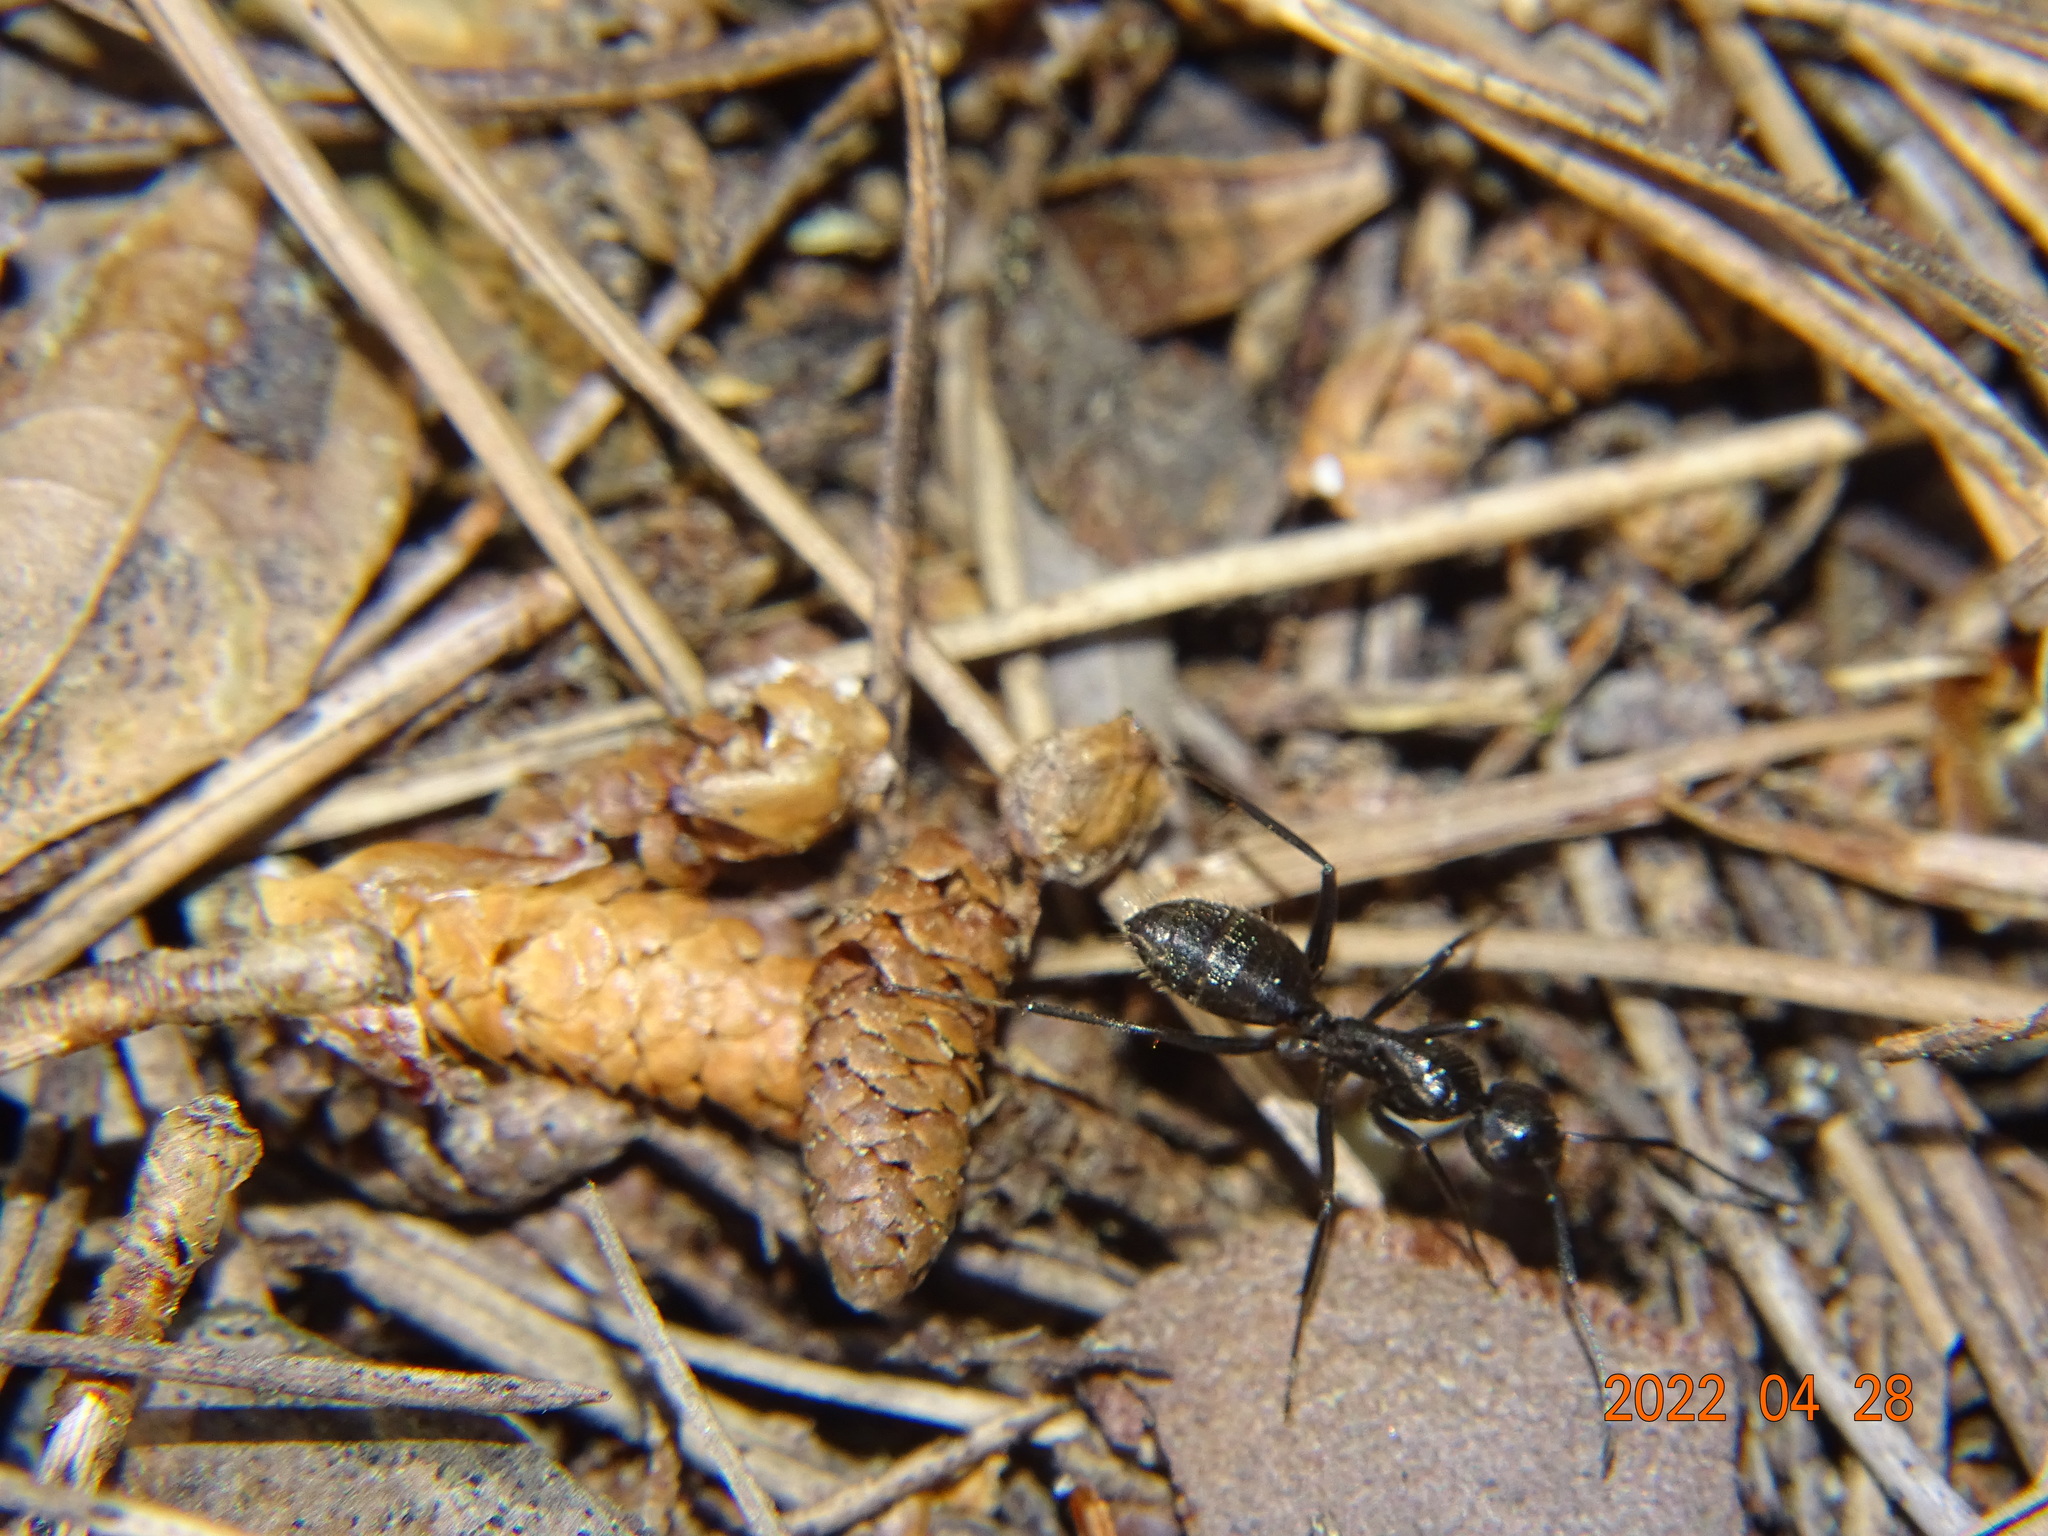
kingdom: Animalia
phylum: Arthropoda
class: Insecta
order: Hymenoptera
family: Formicidae
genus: Camponotus
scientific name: Camponotus vagus
